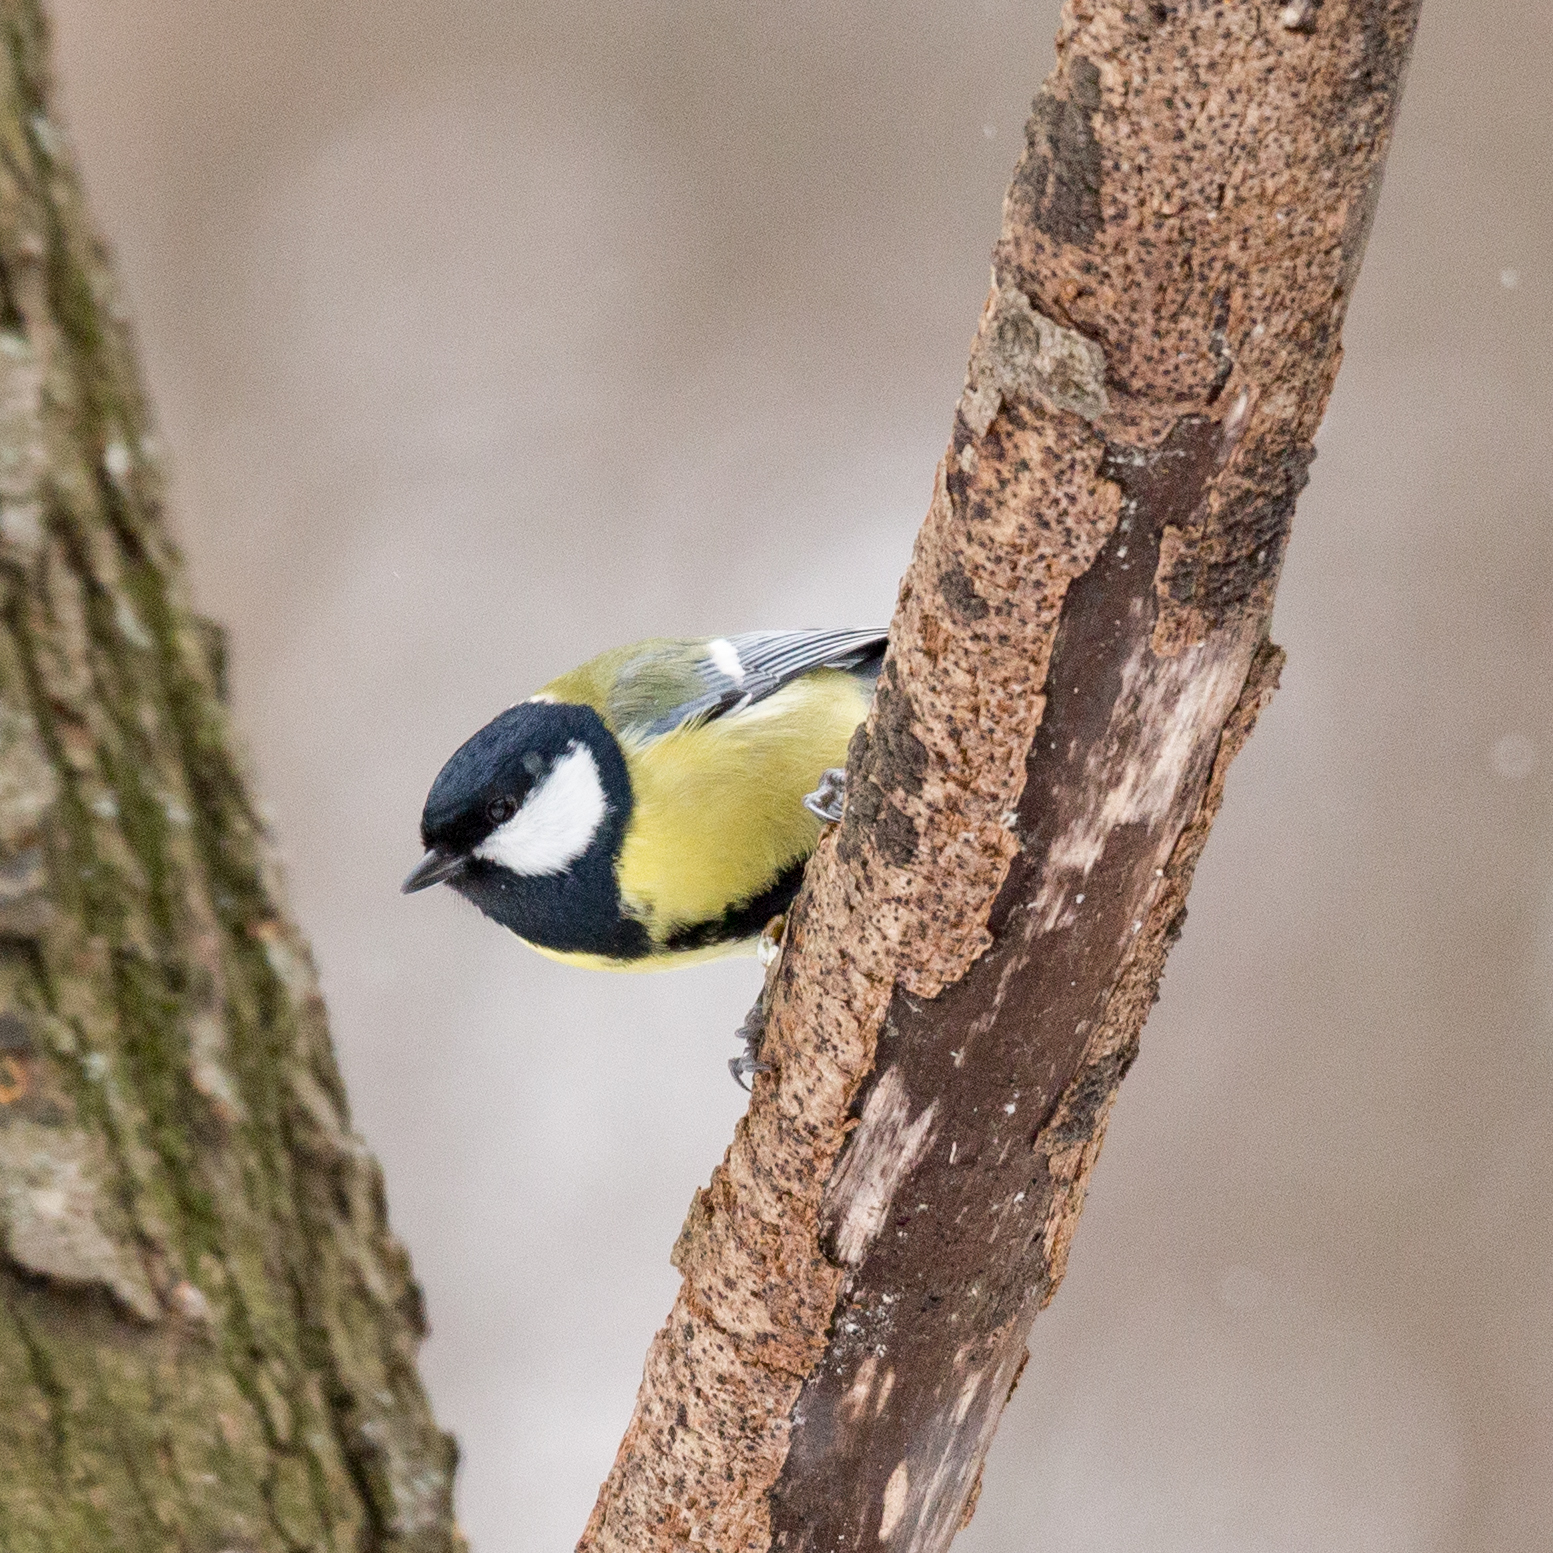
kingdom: Animalia
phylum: Chordata
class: Aves
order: Passeriformes
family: Paridae
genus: Parus
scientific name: Parus major
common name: Great tit
